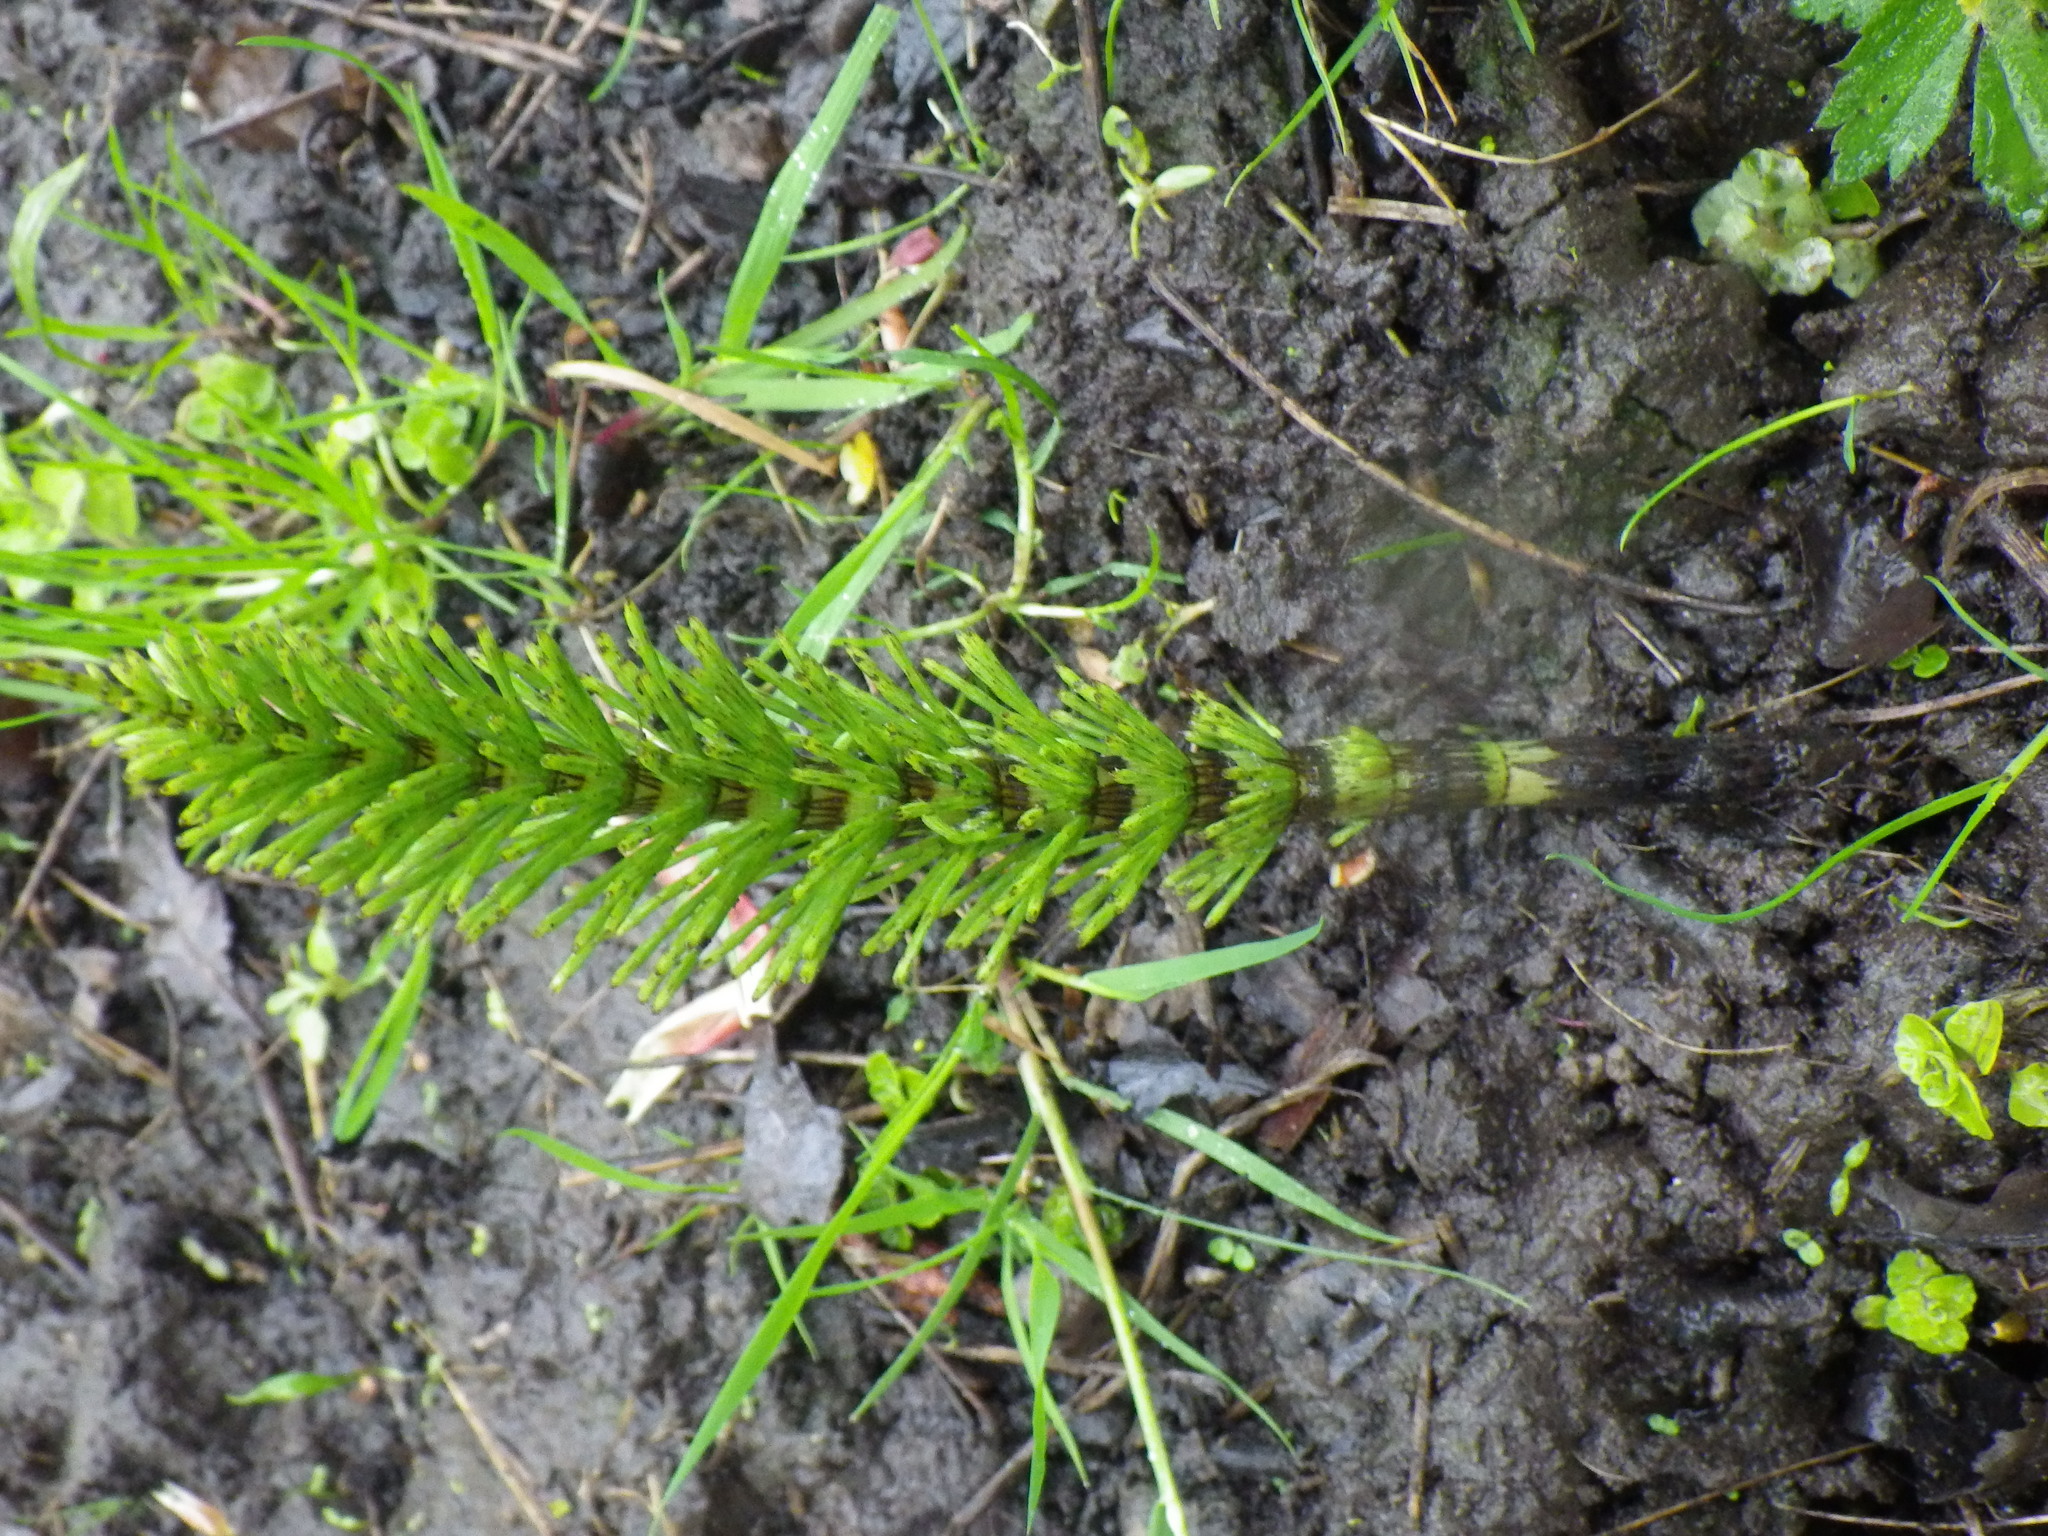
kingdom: Plantae
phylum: Tracheophyta
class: Polypodiopsida
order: Equisetales
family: Equisetaceae
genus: Equisetum
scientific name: Equisetum telmateia
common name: Great horsetail
